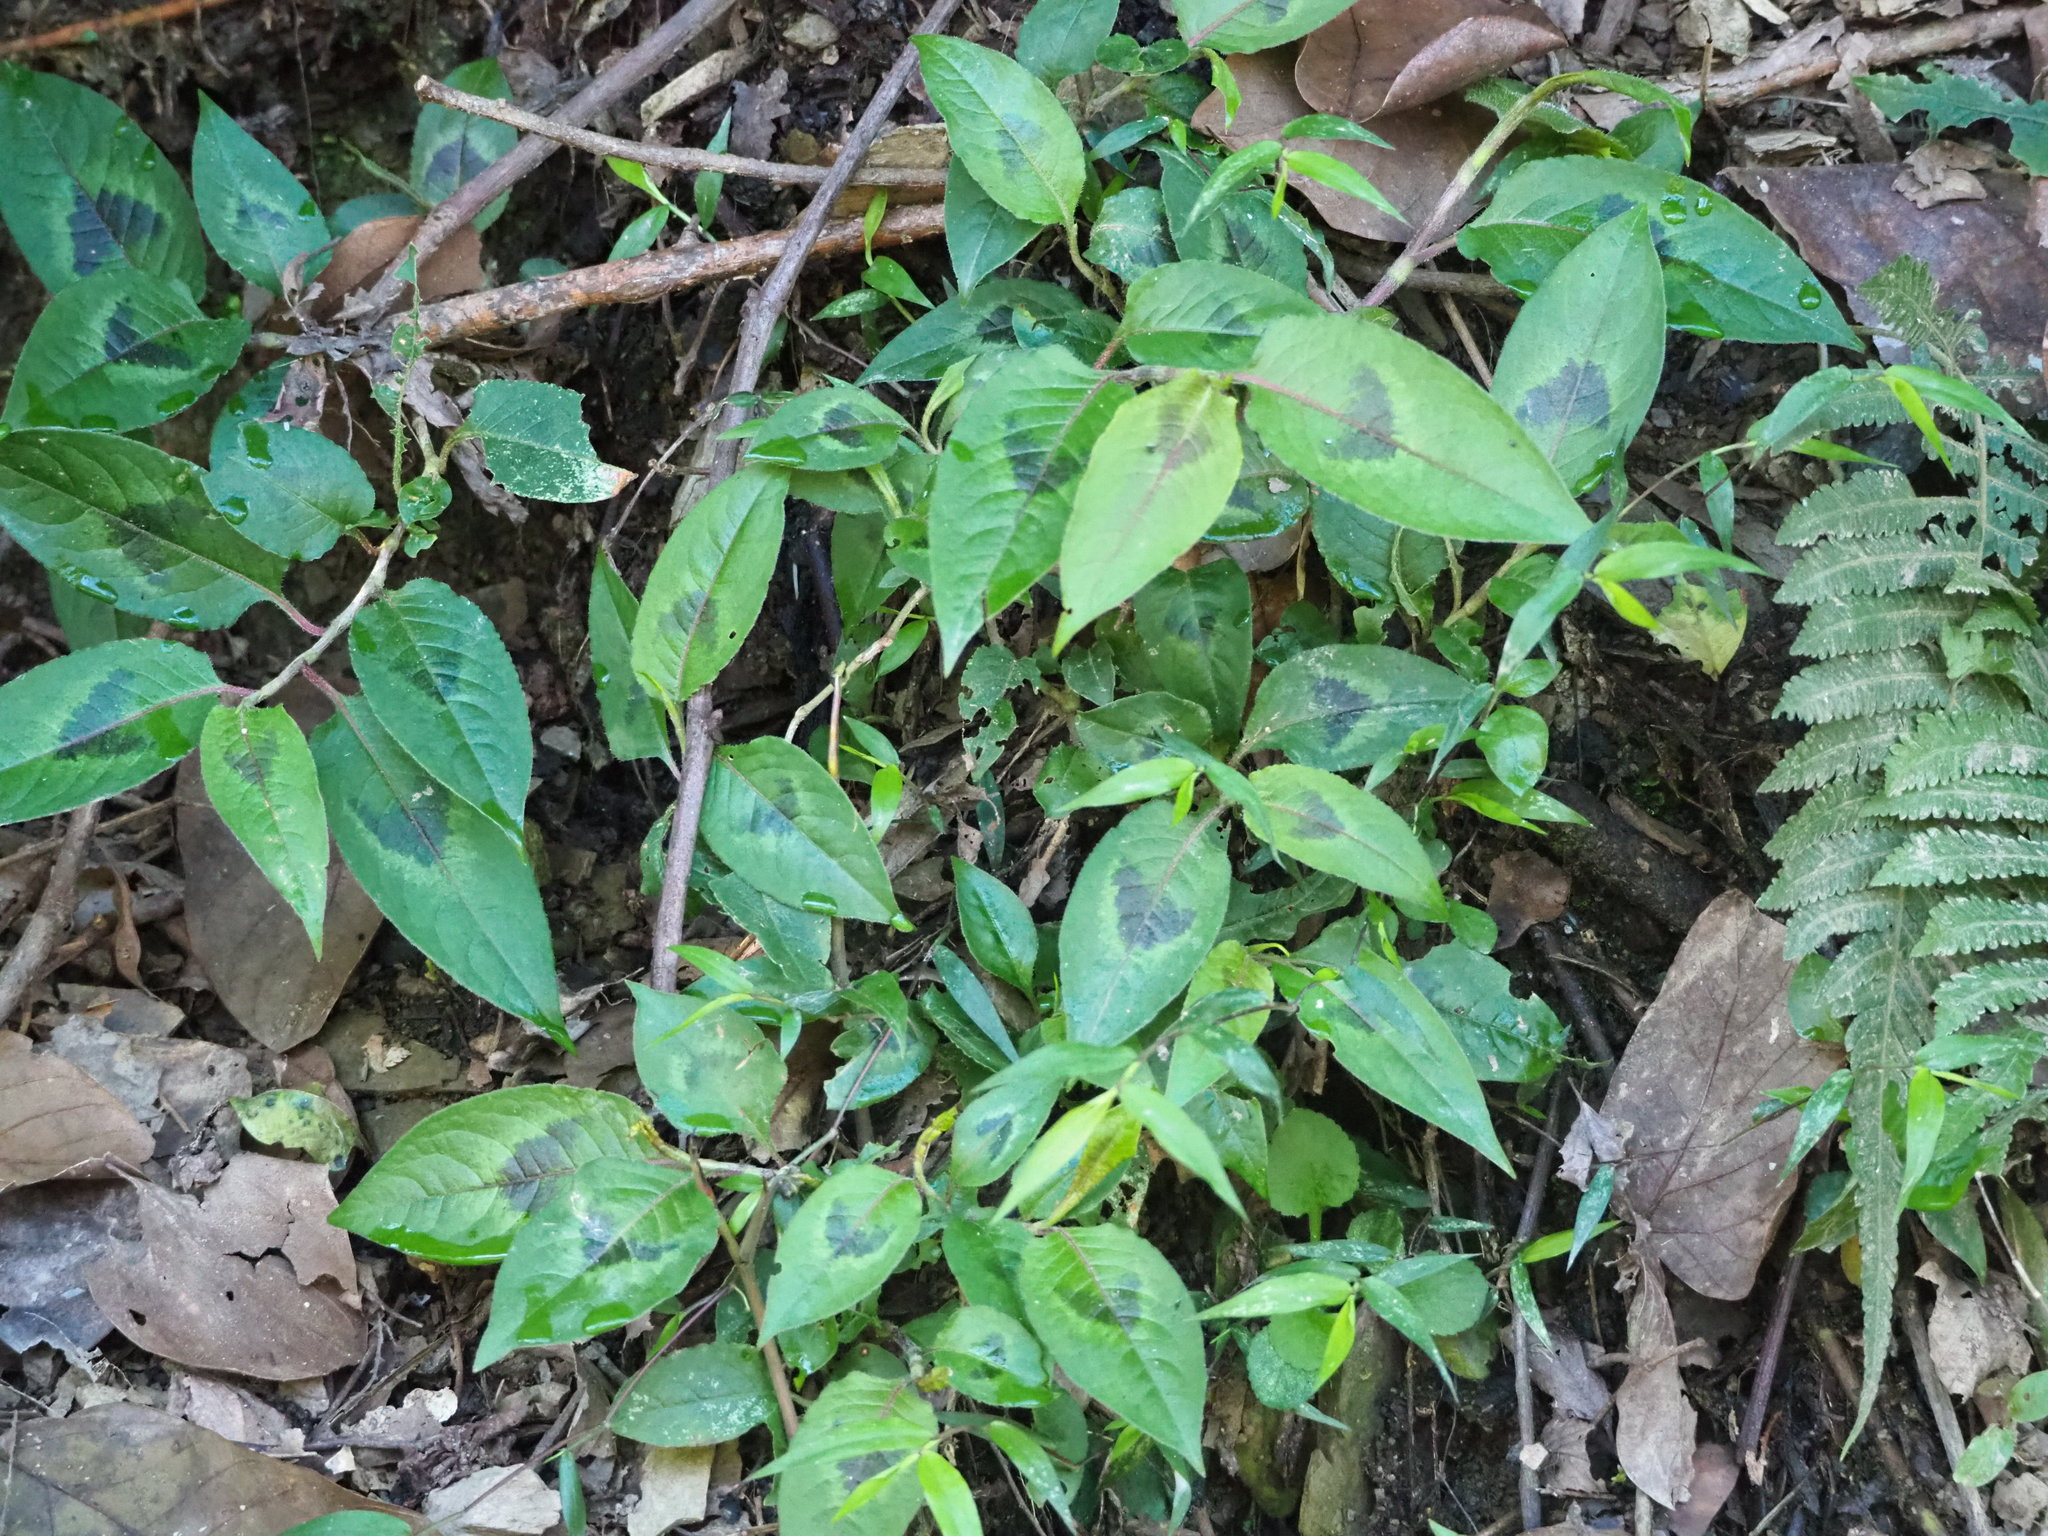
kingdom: Plantae
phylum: Tracheophyta
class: Magnoliopsida
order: Caryophyllales
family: Polygonaceae
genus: Persicaria
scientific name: Persicaria chinensis
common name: Chinese knotweed
